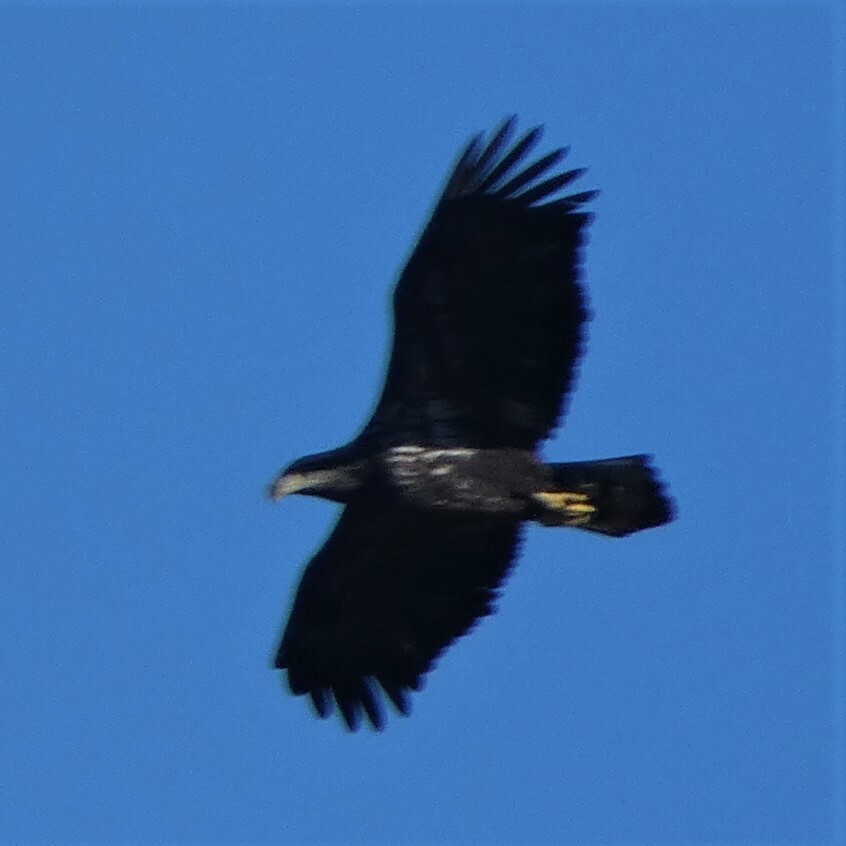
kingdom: Animalia
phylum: Chordata
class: Aves
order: Accipitriformes
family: Accipitridae
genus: Haliaeetus
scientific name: Haliaeetus leucocephalus
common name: Bald eagle
